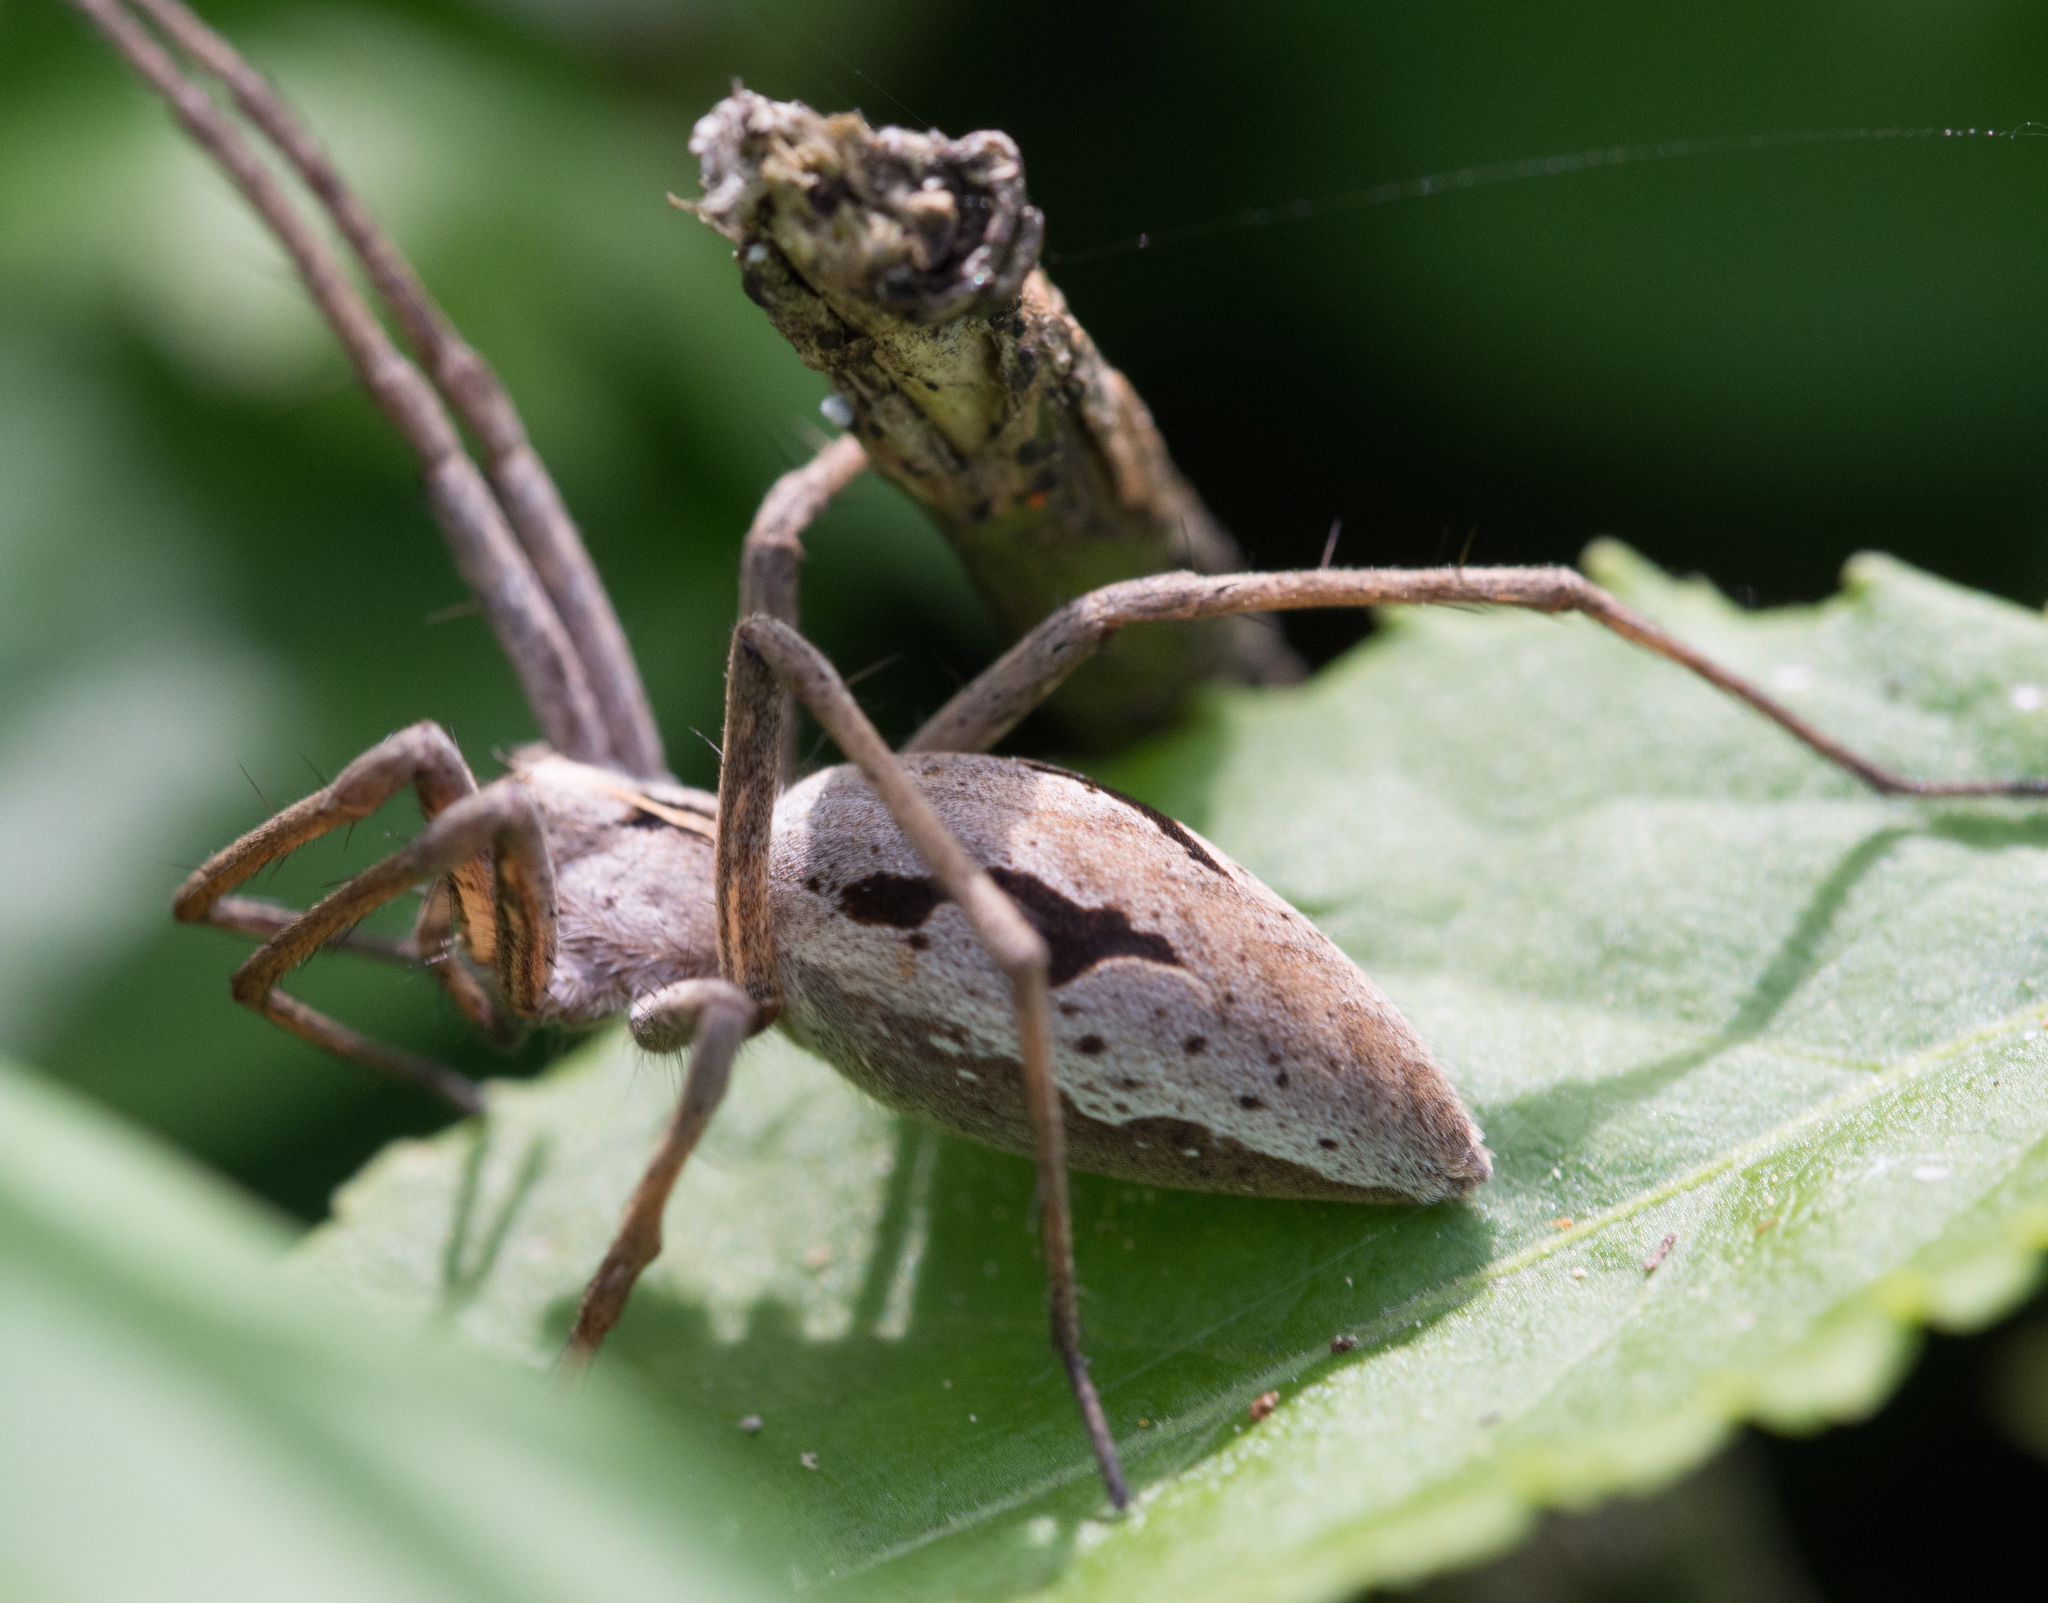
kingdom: Animalia
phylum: Arthropoda
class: Arachnida
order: Araneae
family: Pisauridae
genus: Pisaura
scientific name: Pisaura mirabilis
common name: Tent spider
